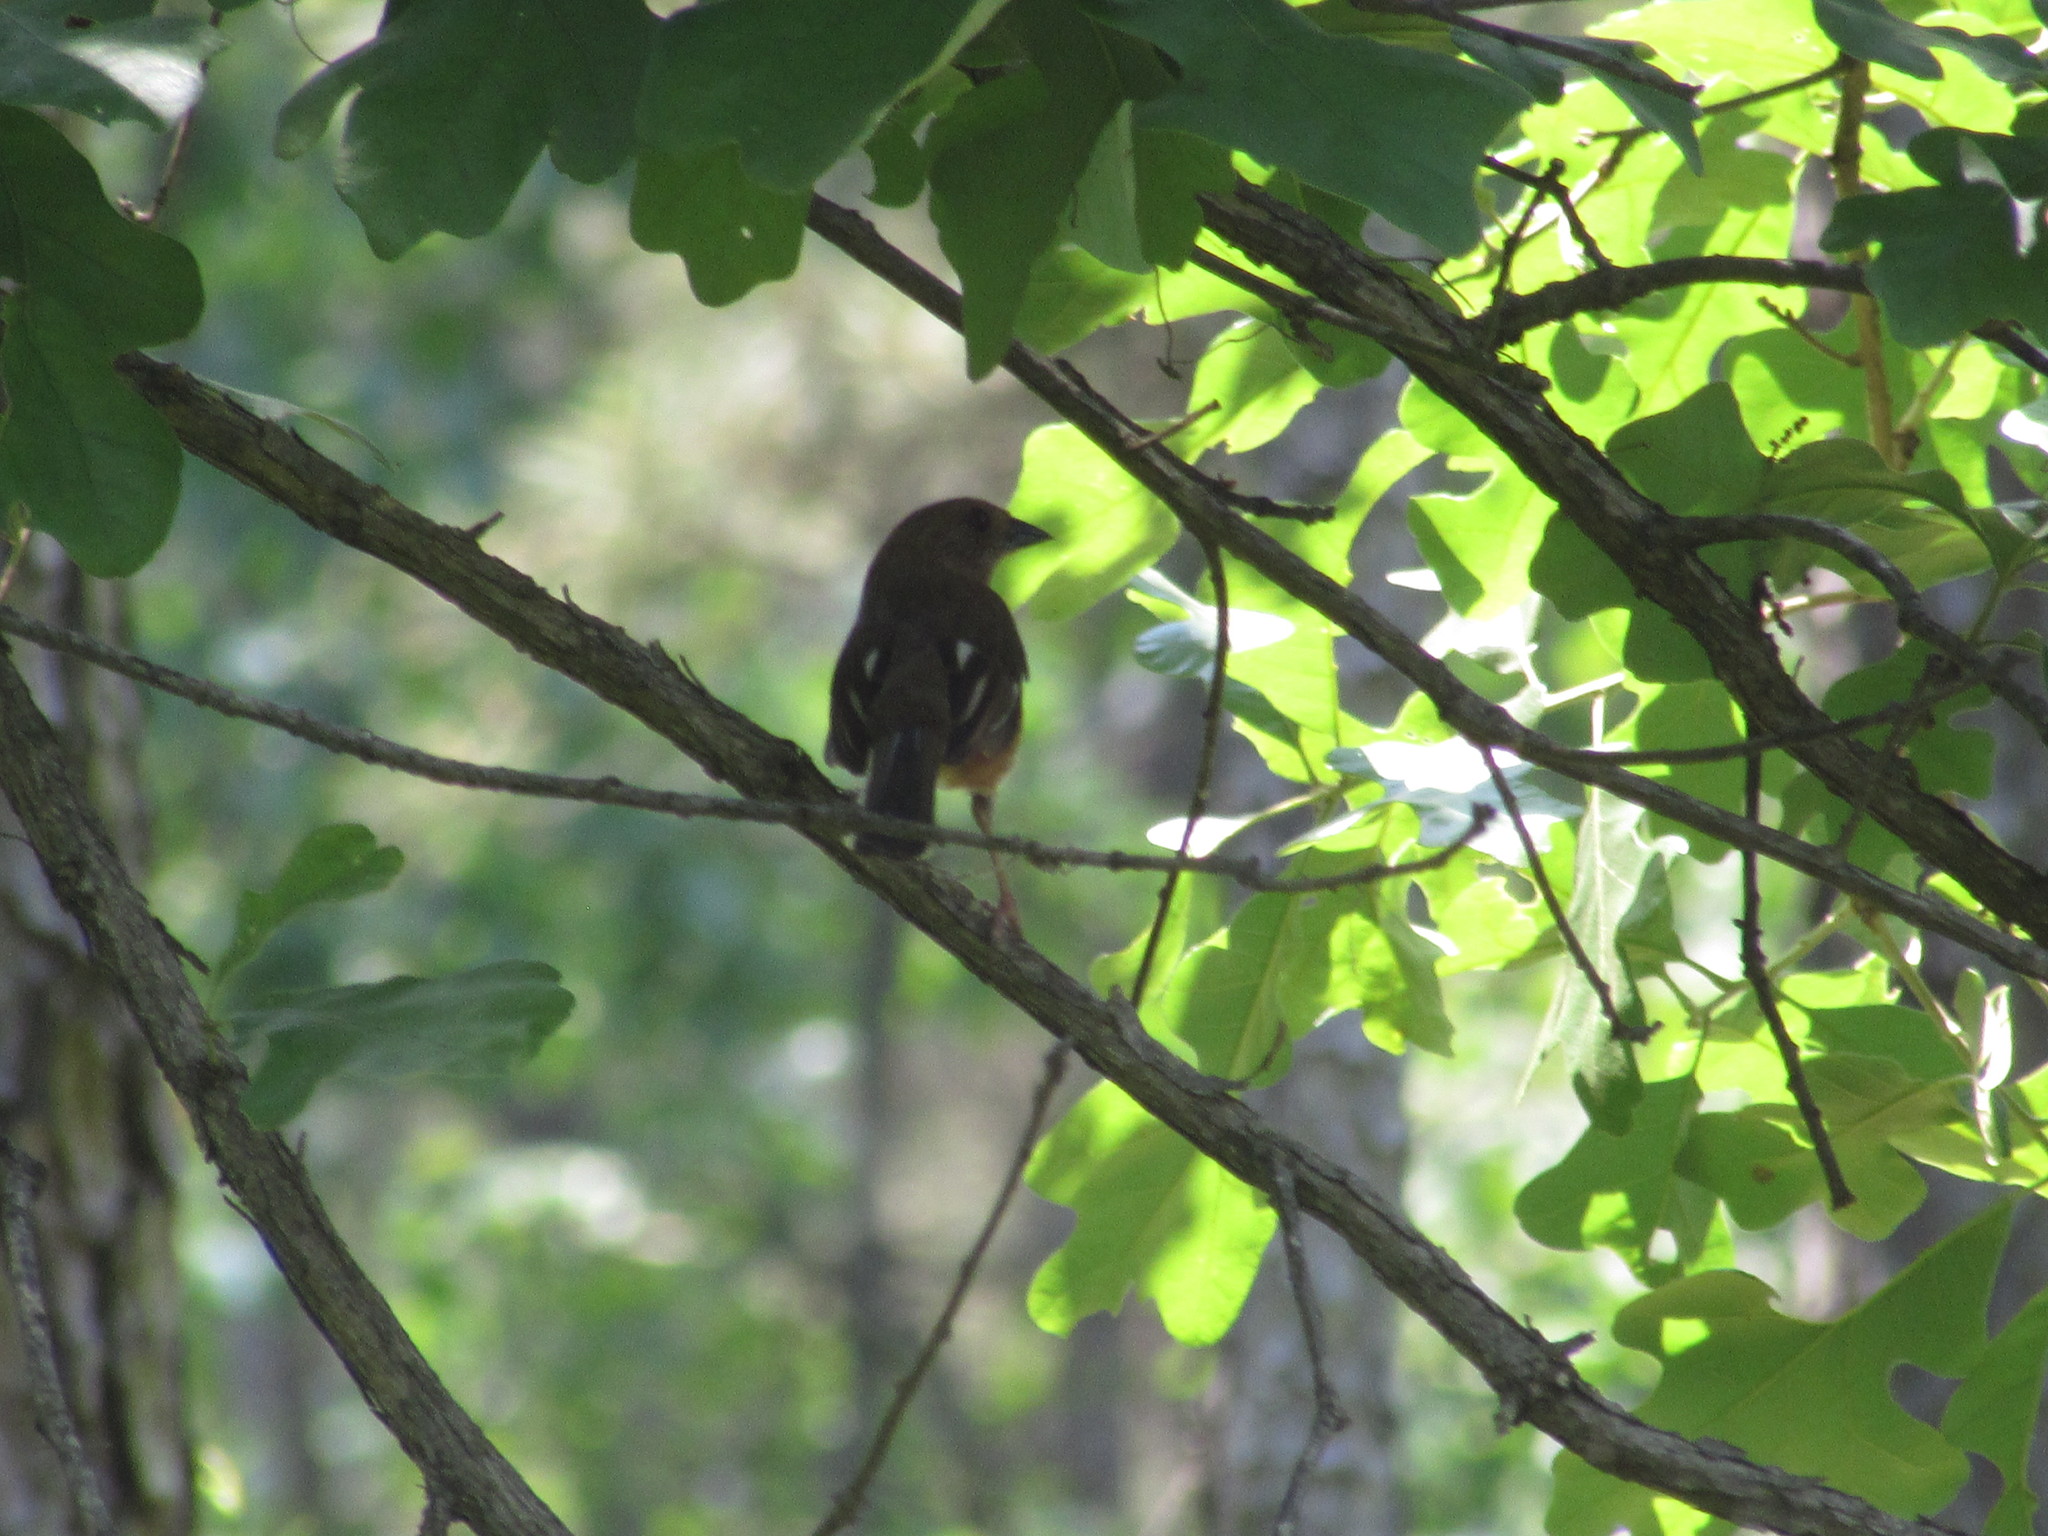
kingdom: Animalia
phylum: Chordata
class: Aves
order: Passeriformes
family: Passerellidae
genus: Pipilo
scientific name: Pipilo erythrophthalmus
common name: Eastern towhee
